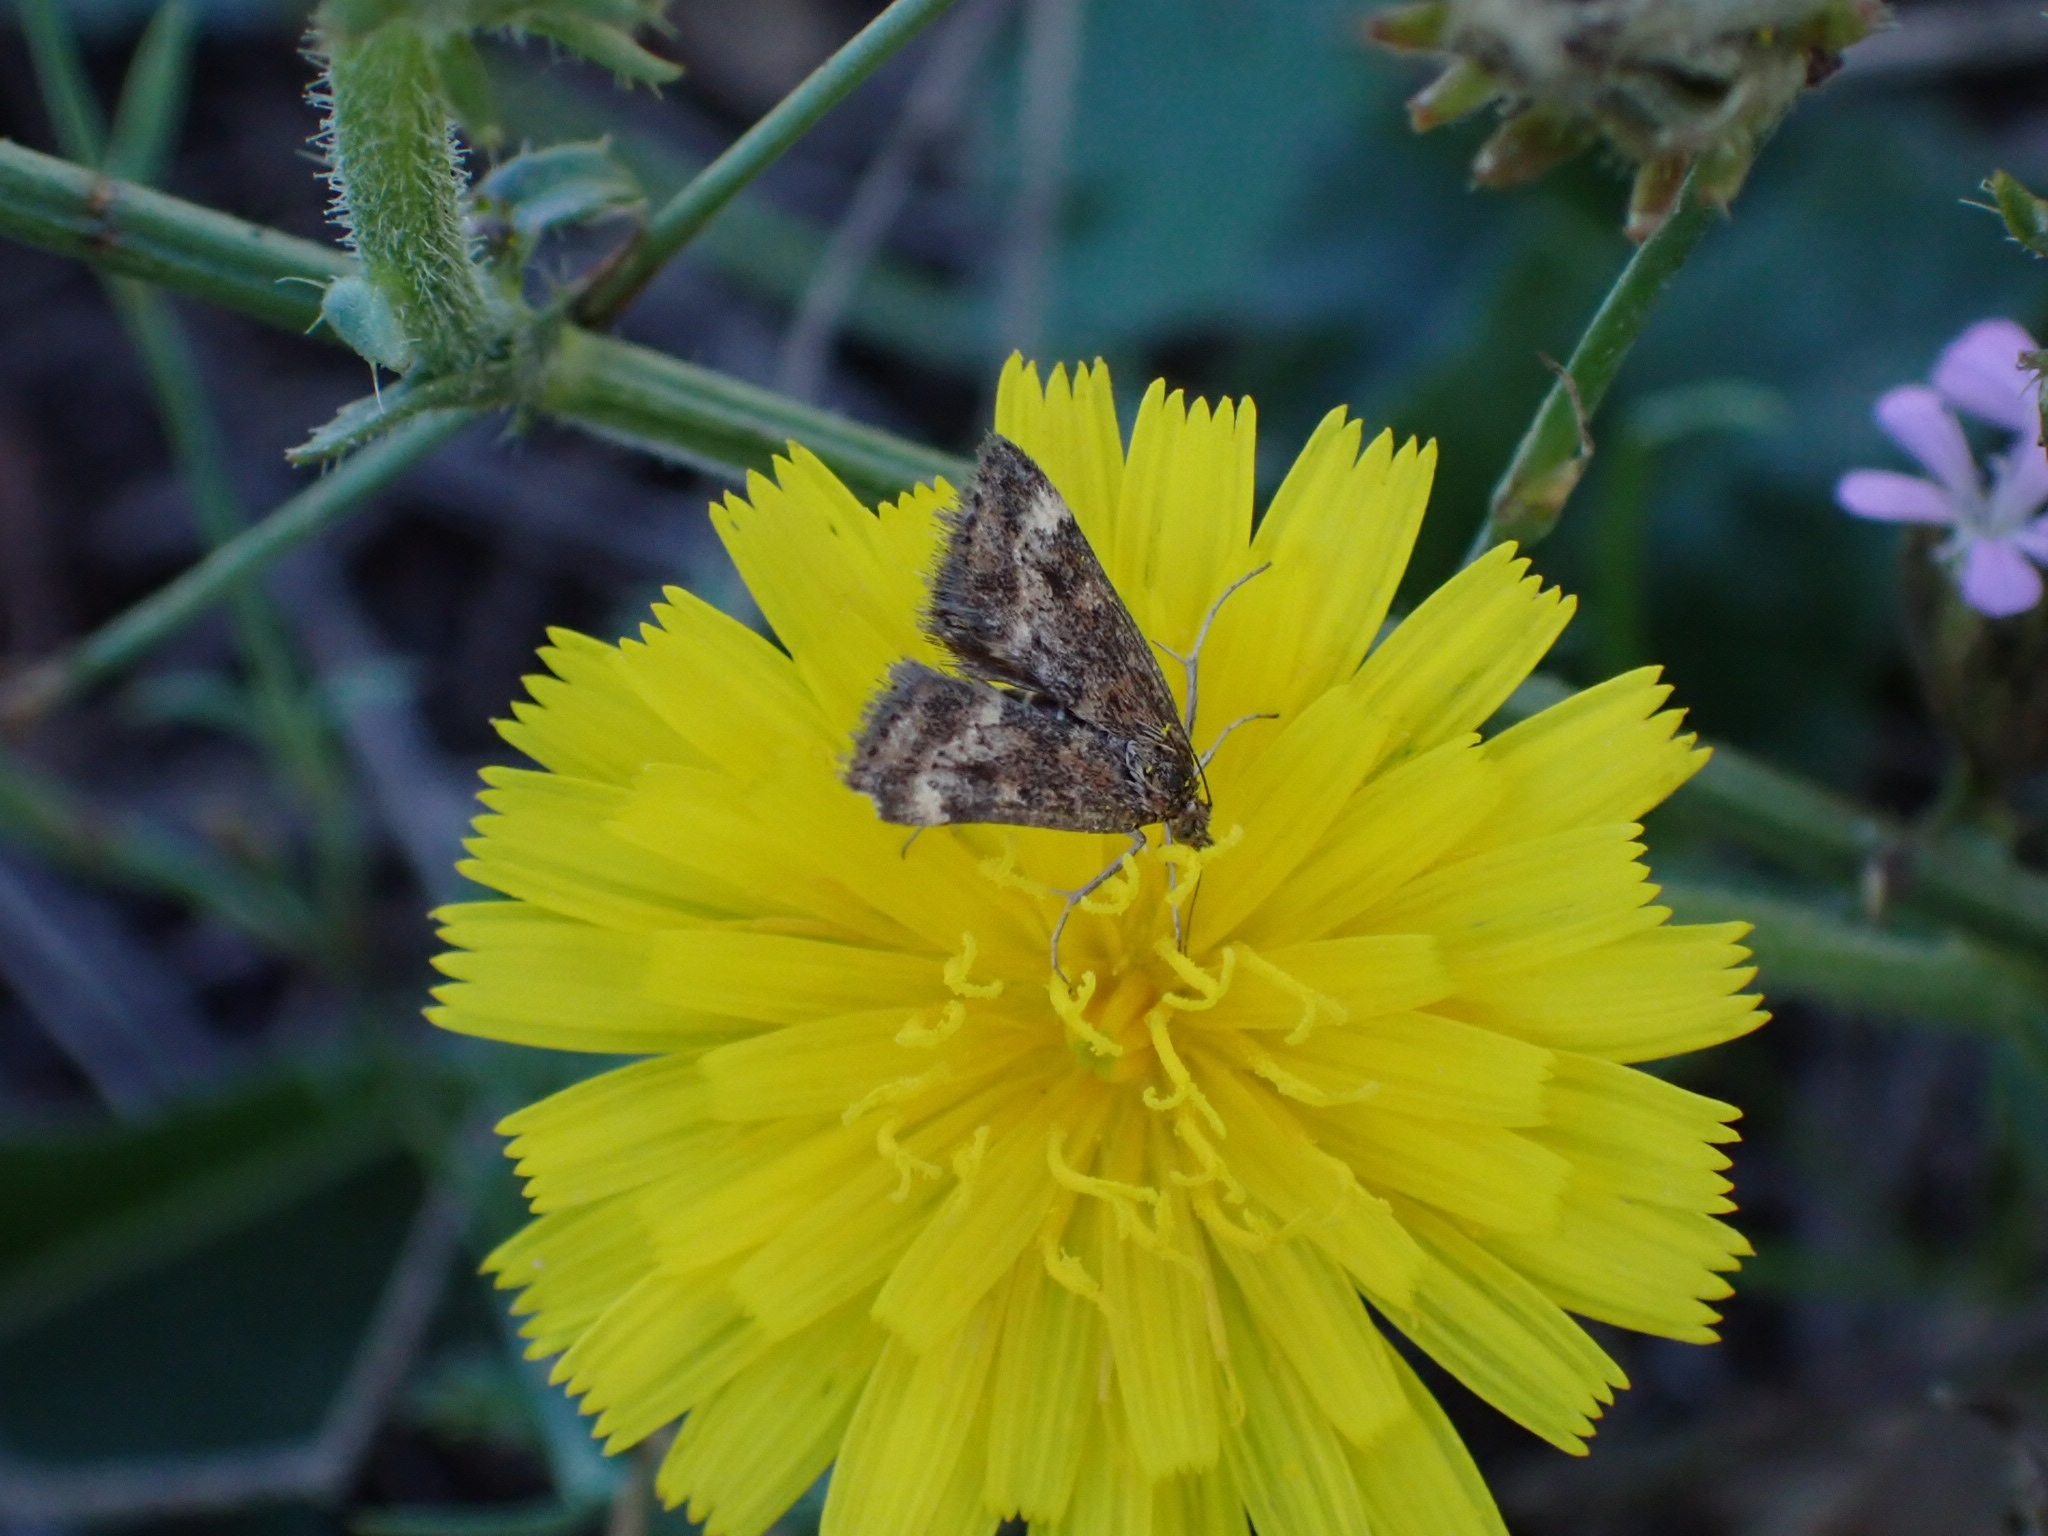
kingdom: Animalia
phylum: Arthropoda
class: Insecta
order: Lepidoptera
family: Crambidae
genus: Pyrausta
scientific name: Pyrausta despicata
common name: Straw-barred pearl
